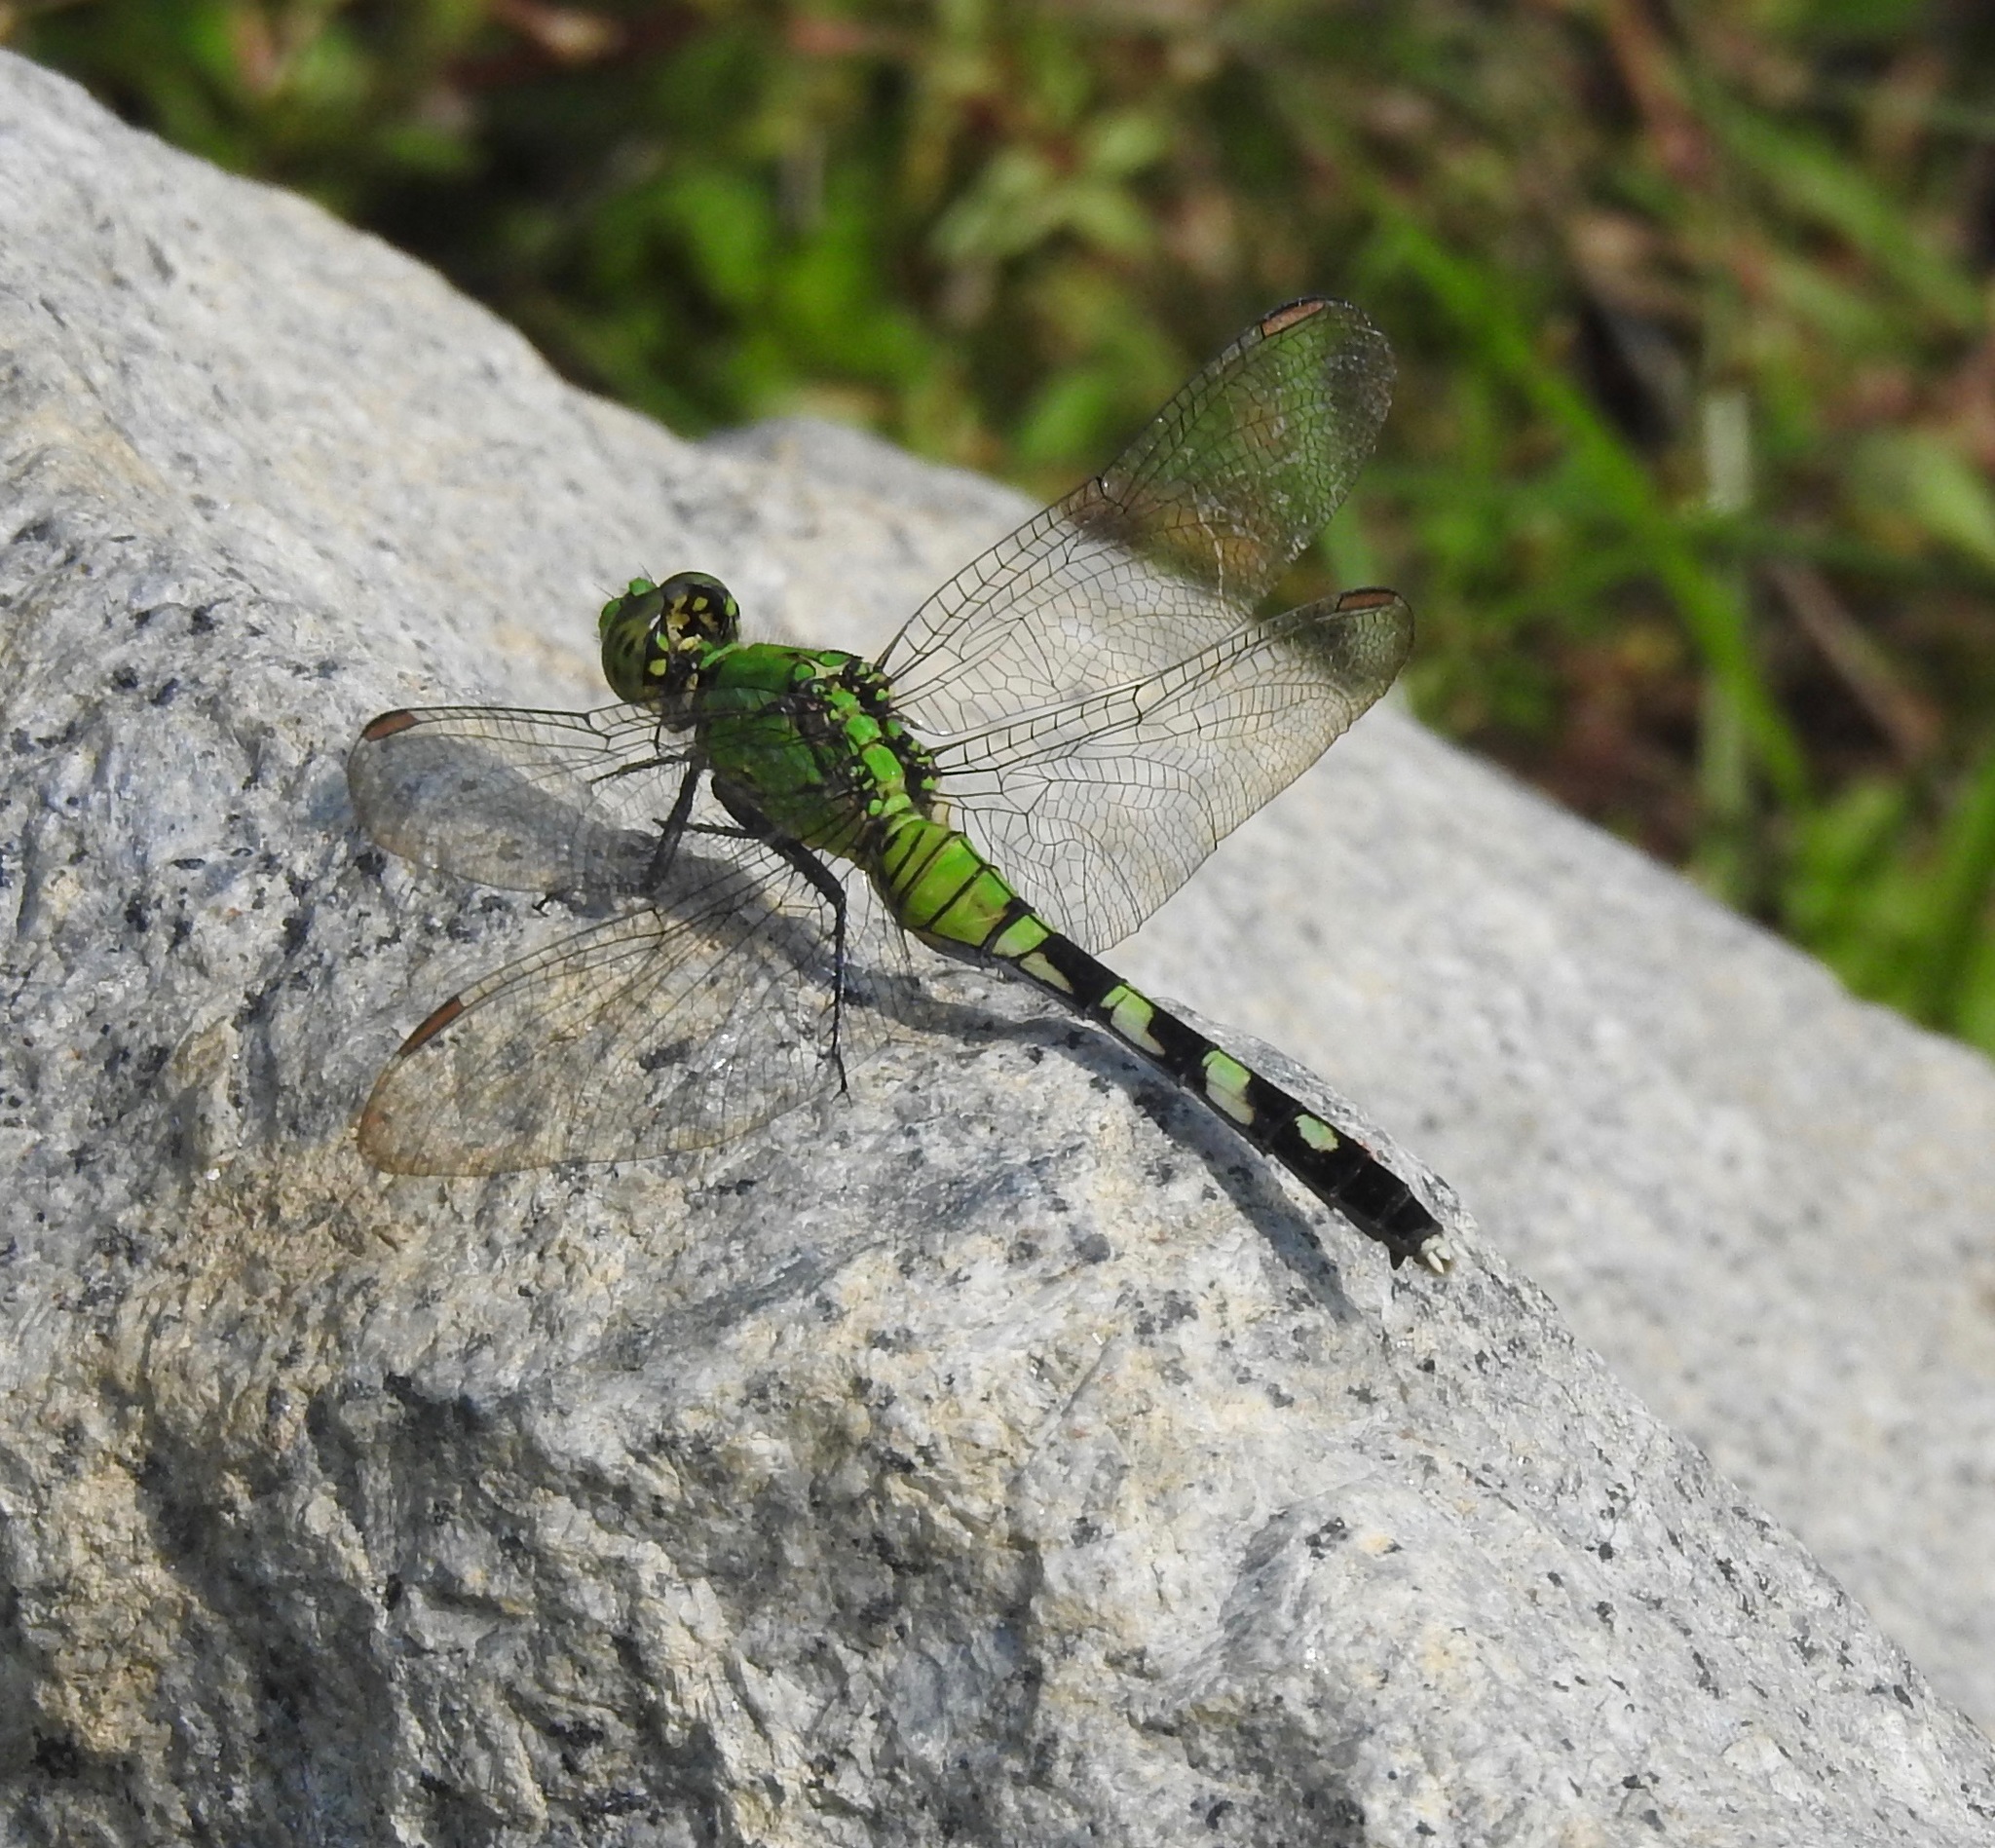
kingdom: Animalia
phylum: Arthropoda
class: Insecta
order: Odonata
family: Libellulidae
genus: Erythemis
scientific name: Erythemis simplicicollis
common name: Eastern pondhawk
